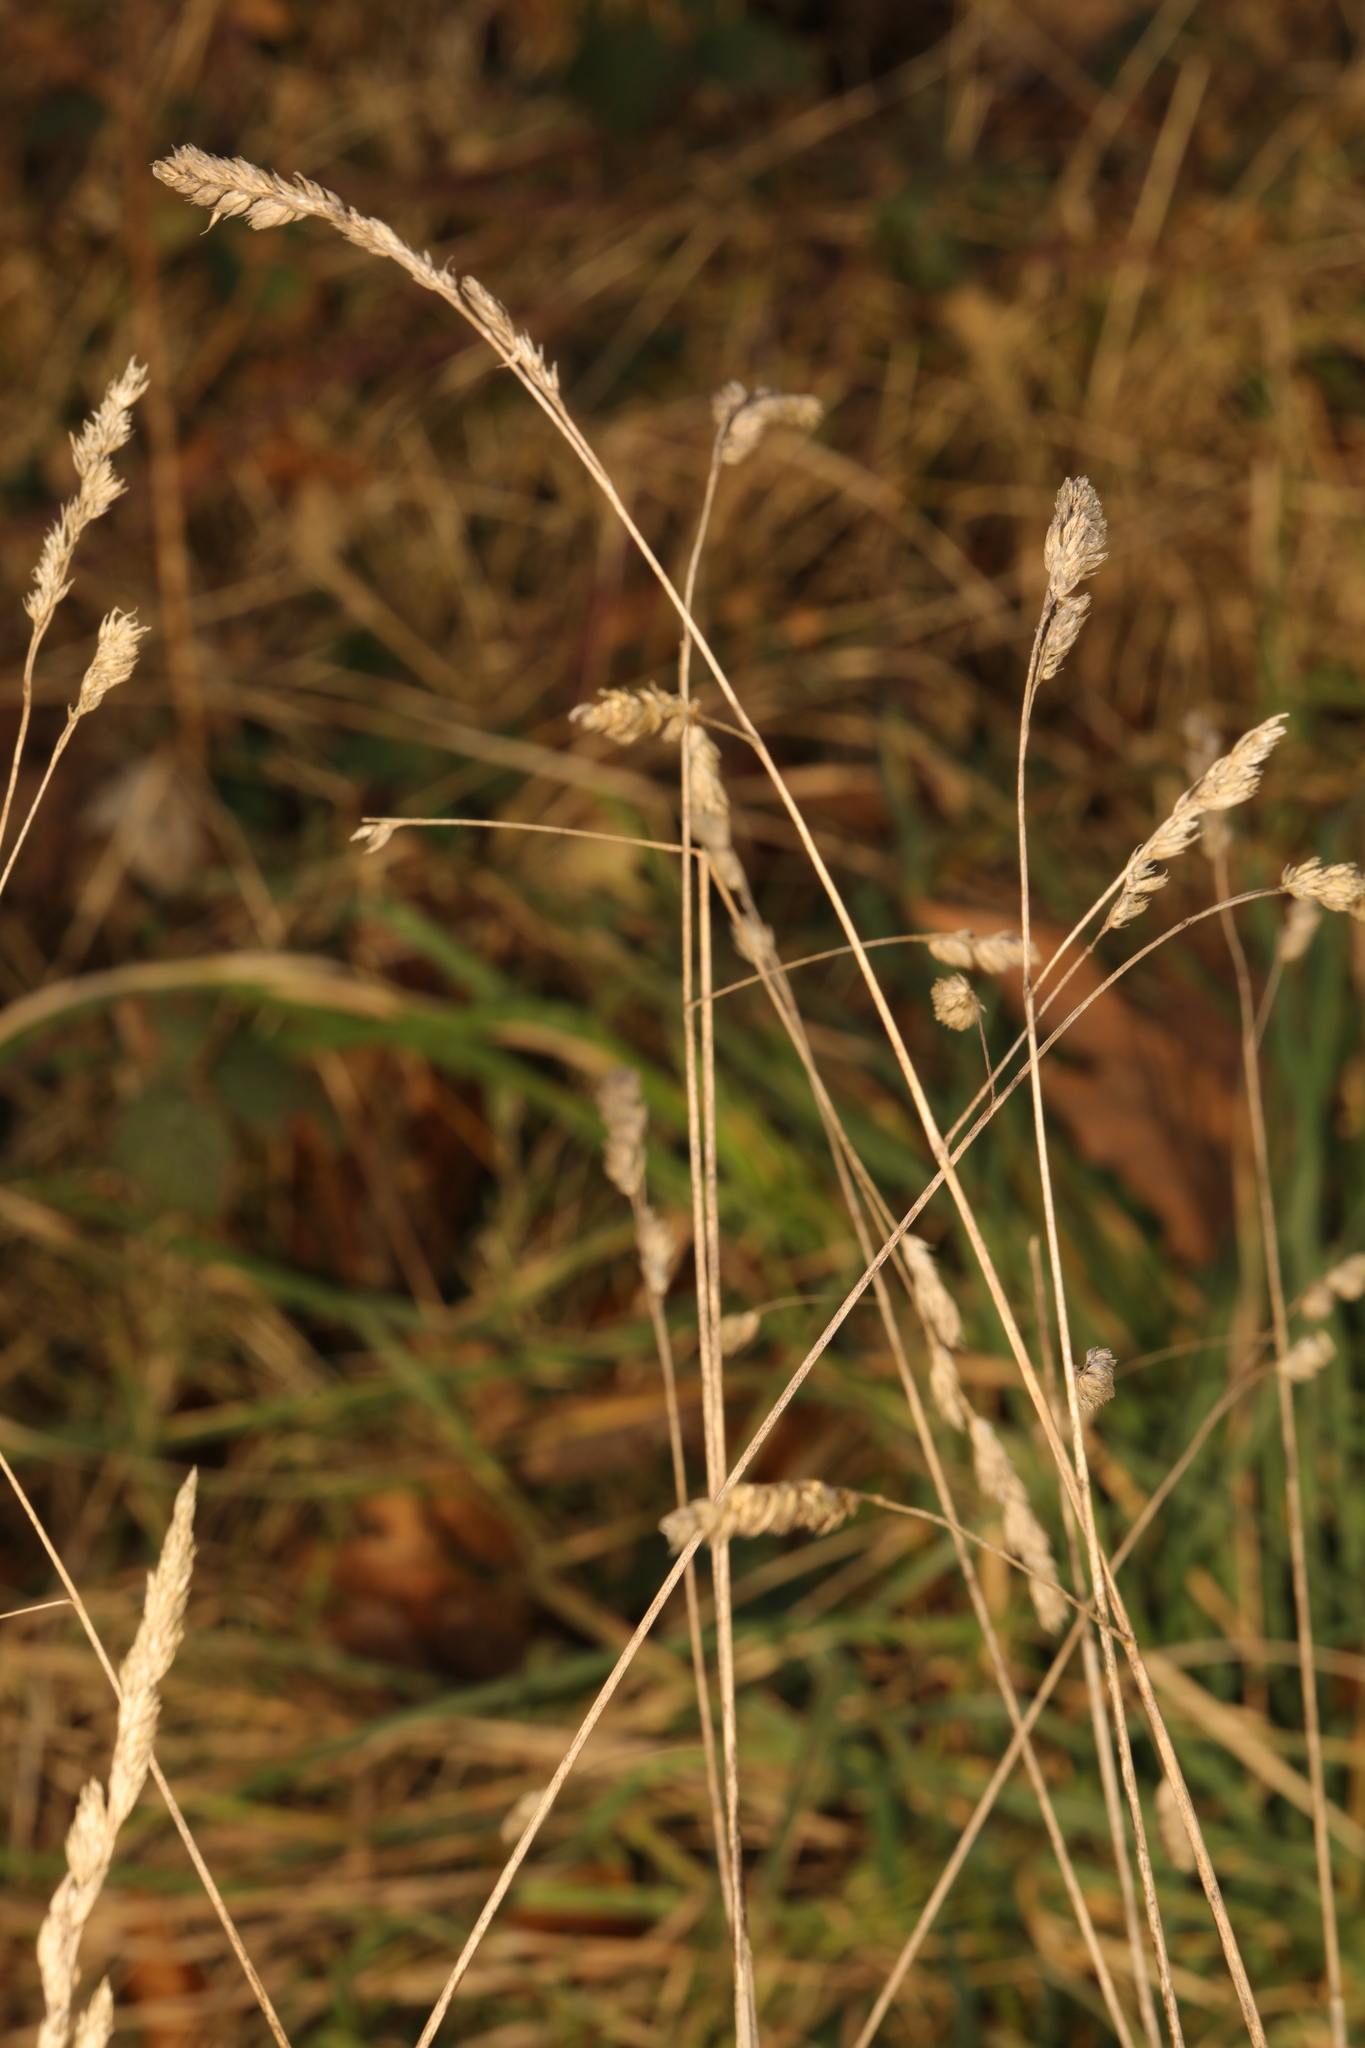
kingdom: Plantae
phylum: Tracheophyta
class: Liliopsida
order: Poales
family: Poaceae
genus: Dactylis
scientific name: Dactylis glomerata
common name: Orchardgrass
